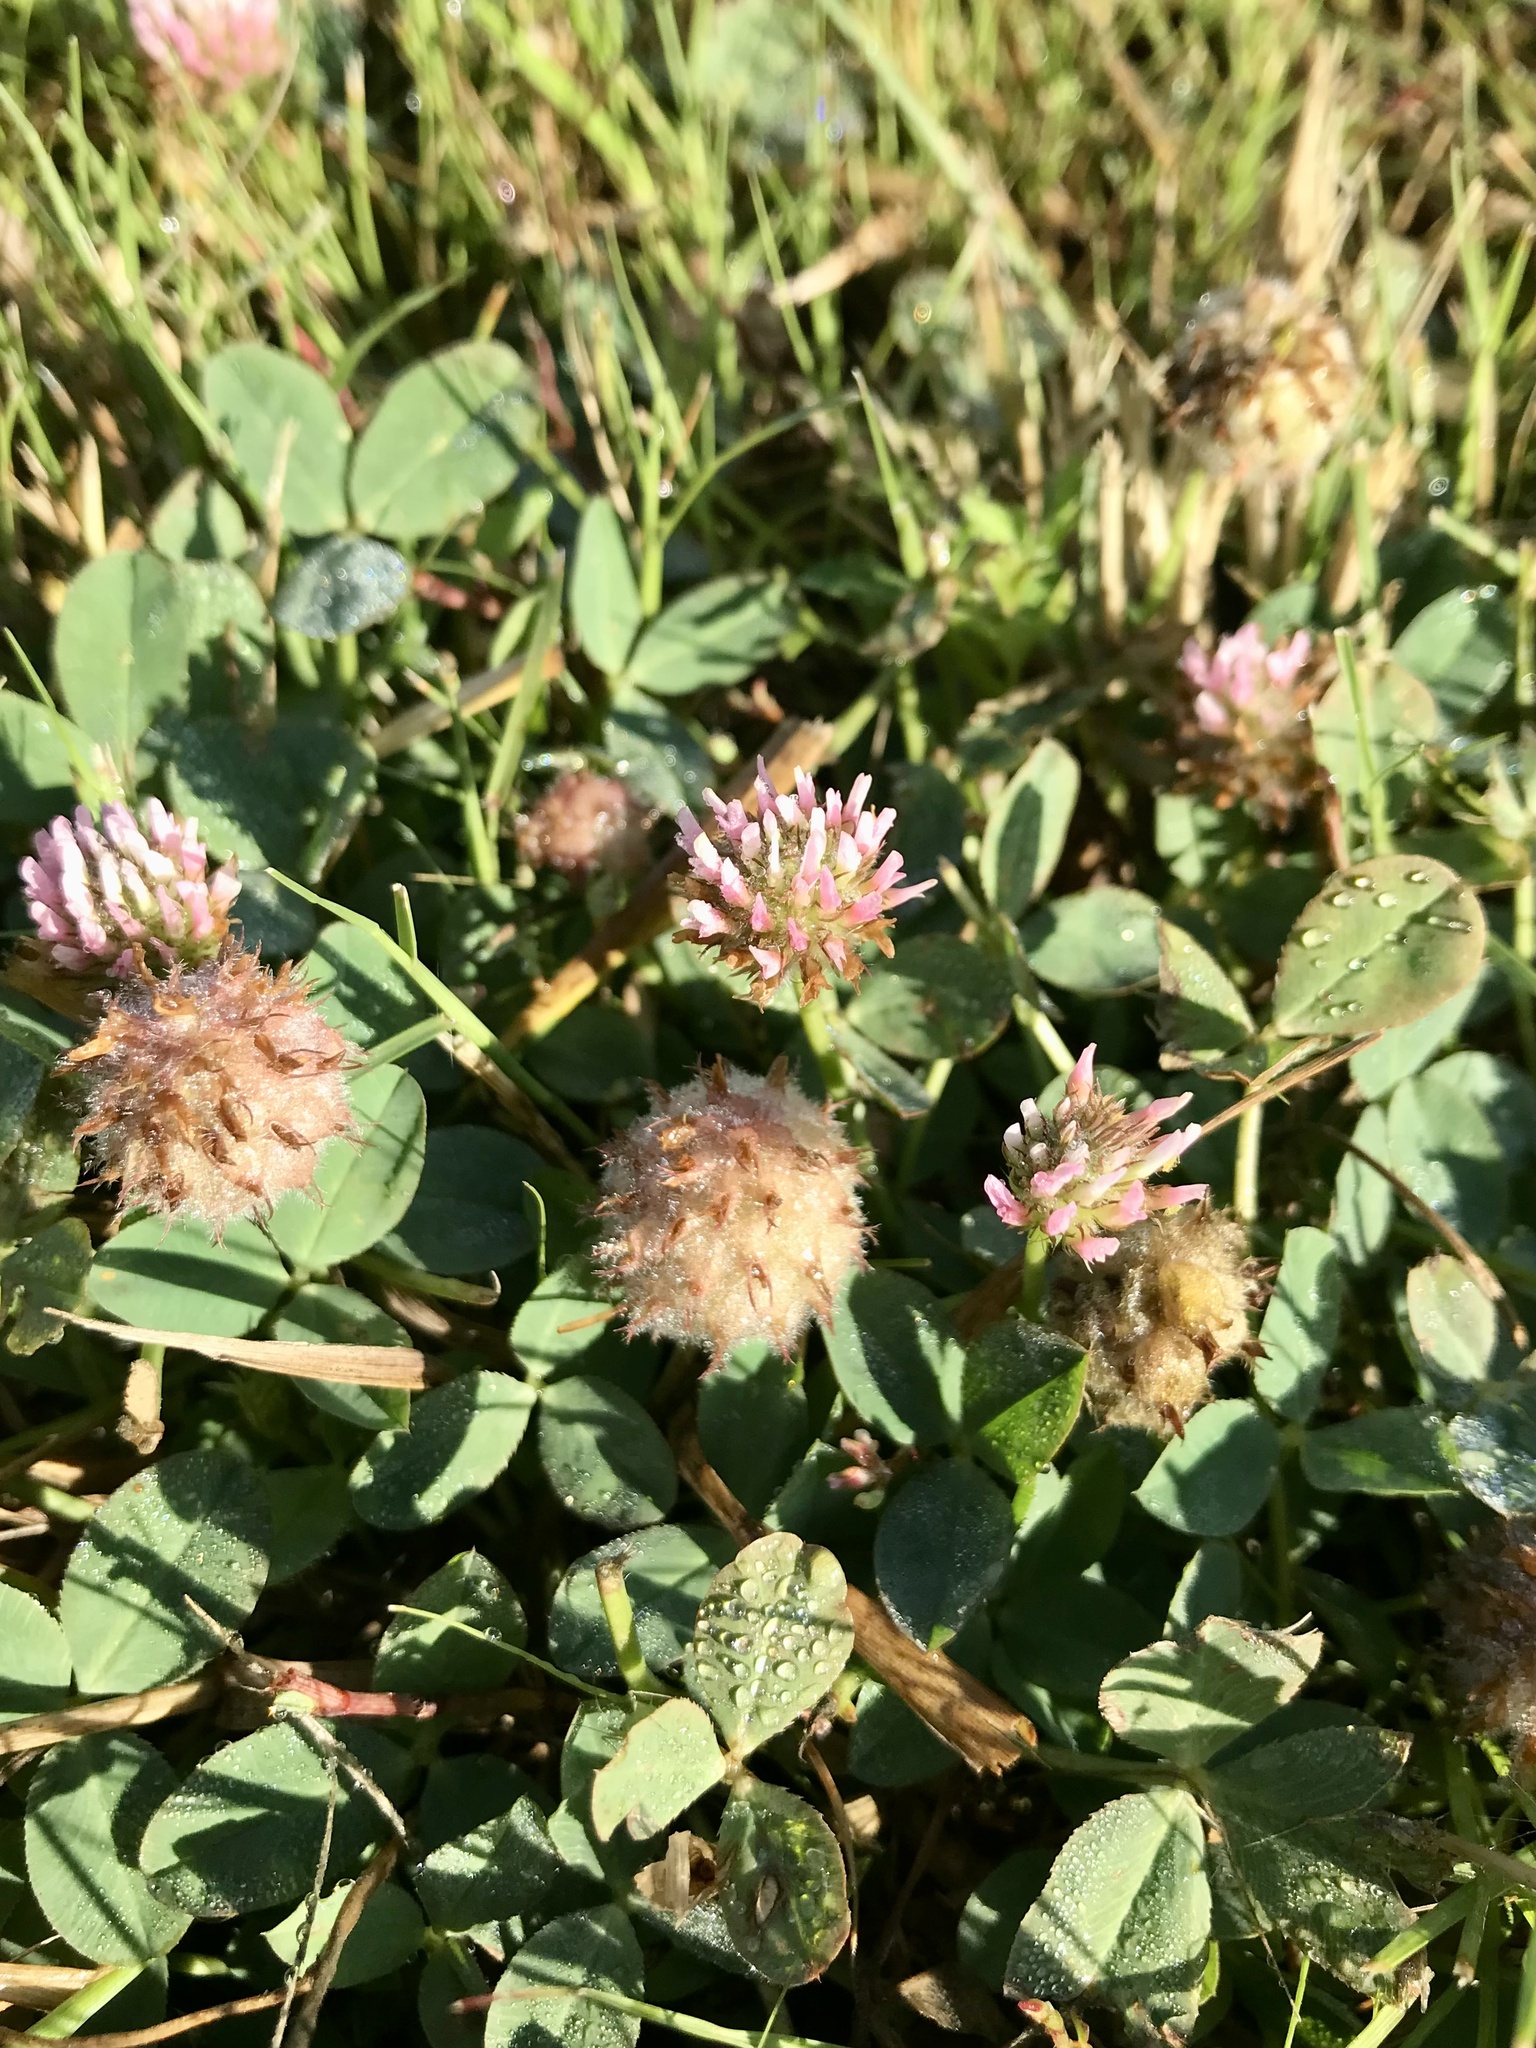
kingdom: Plantae
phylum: Tracheophyta
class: Magnoliopsida
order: Fabales
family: Fabaceae
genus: Trifolium
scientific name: Trifolium fragiferum
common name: Strawberry clover
